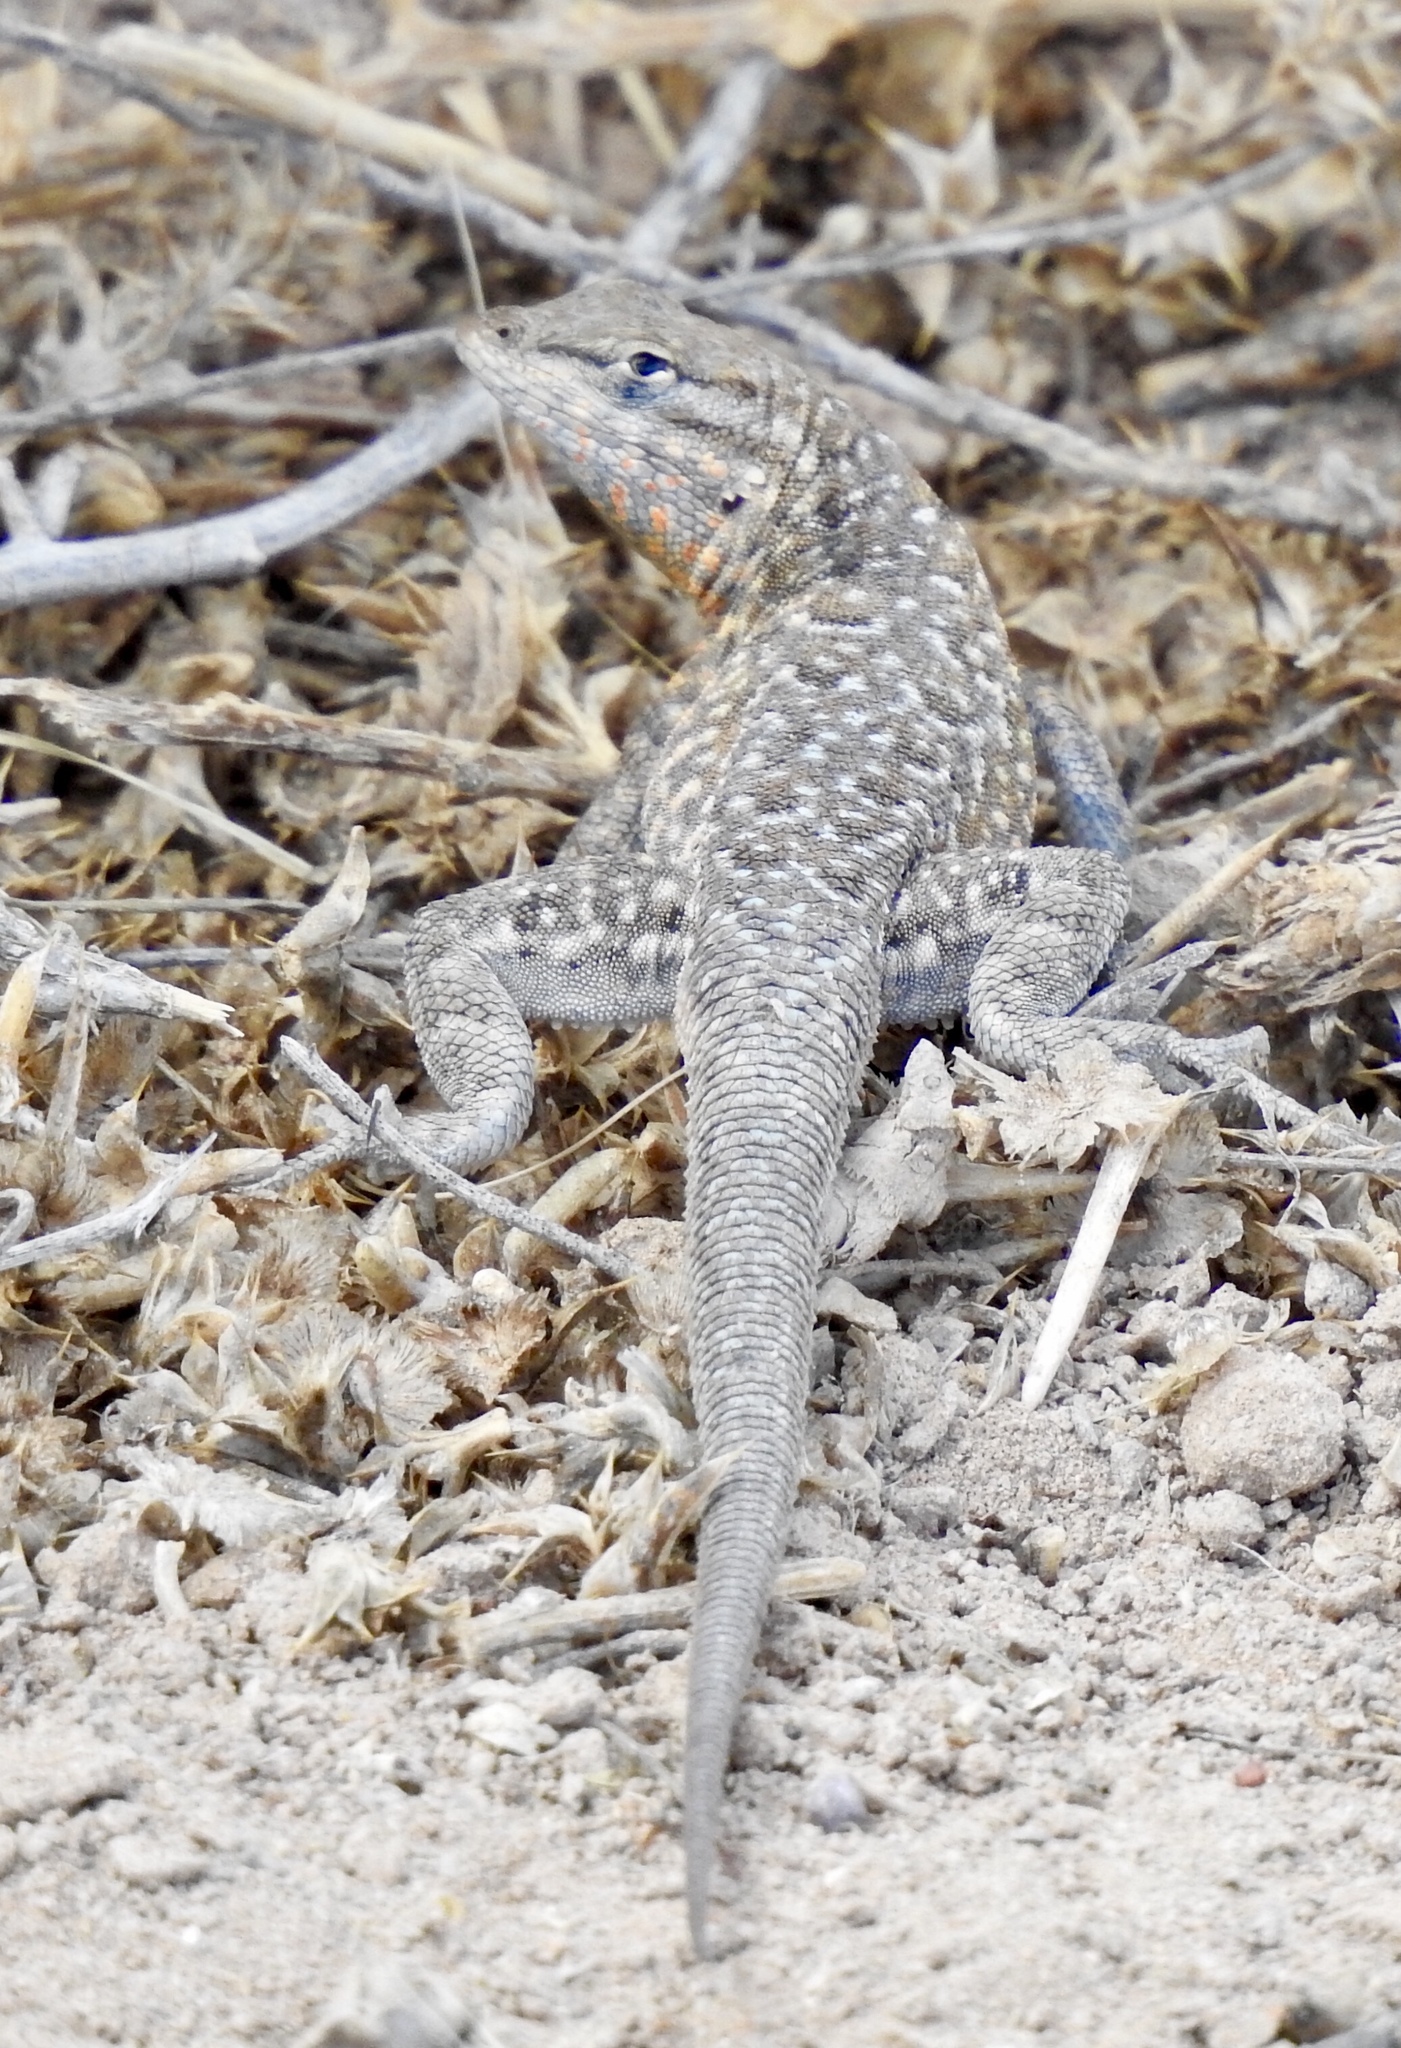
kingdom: Animalia
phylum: Chordata
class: Squamata
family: Phrynosomatidae
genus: Uta
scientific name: Uta stansburiana
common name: Side-blotched lizard
